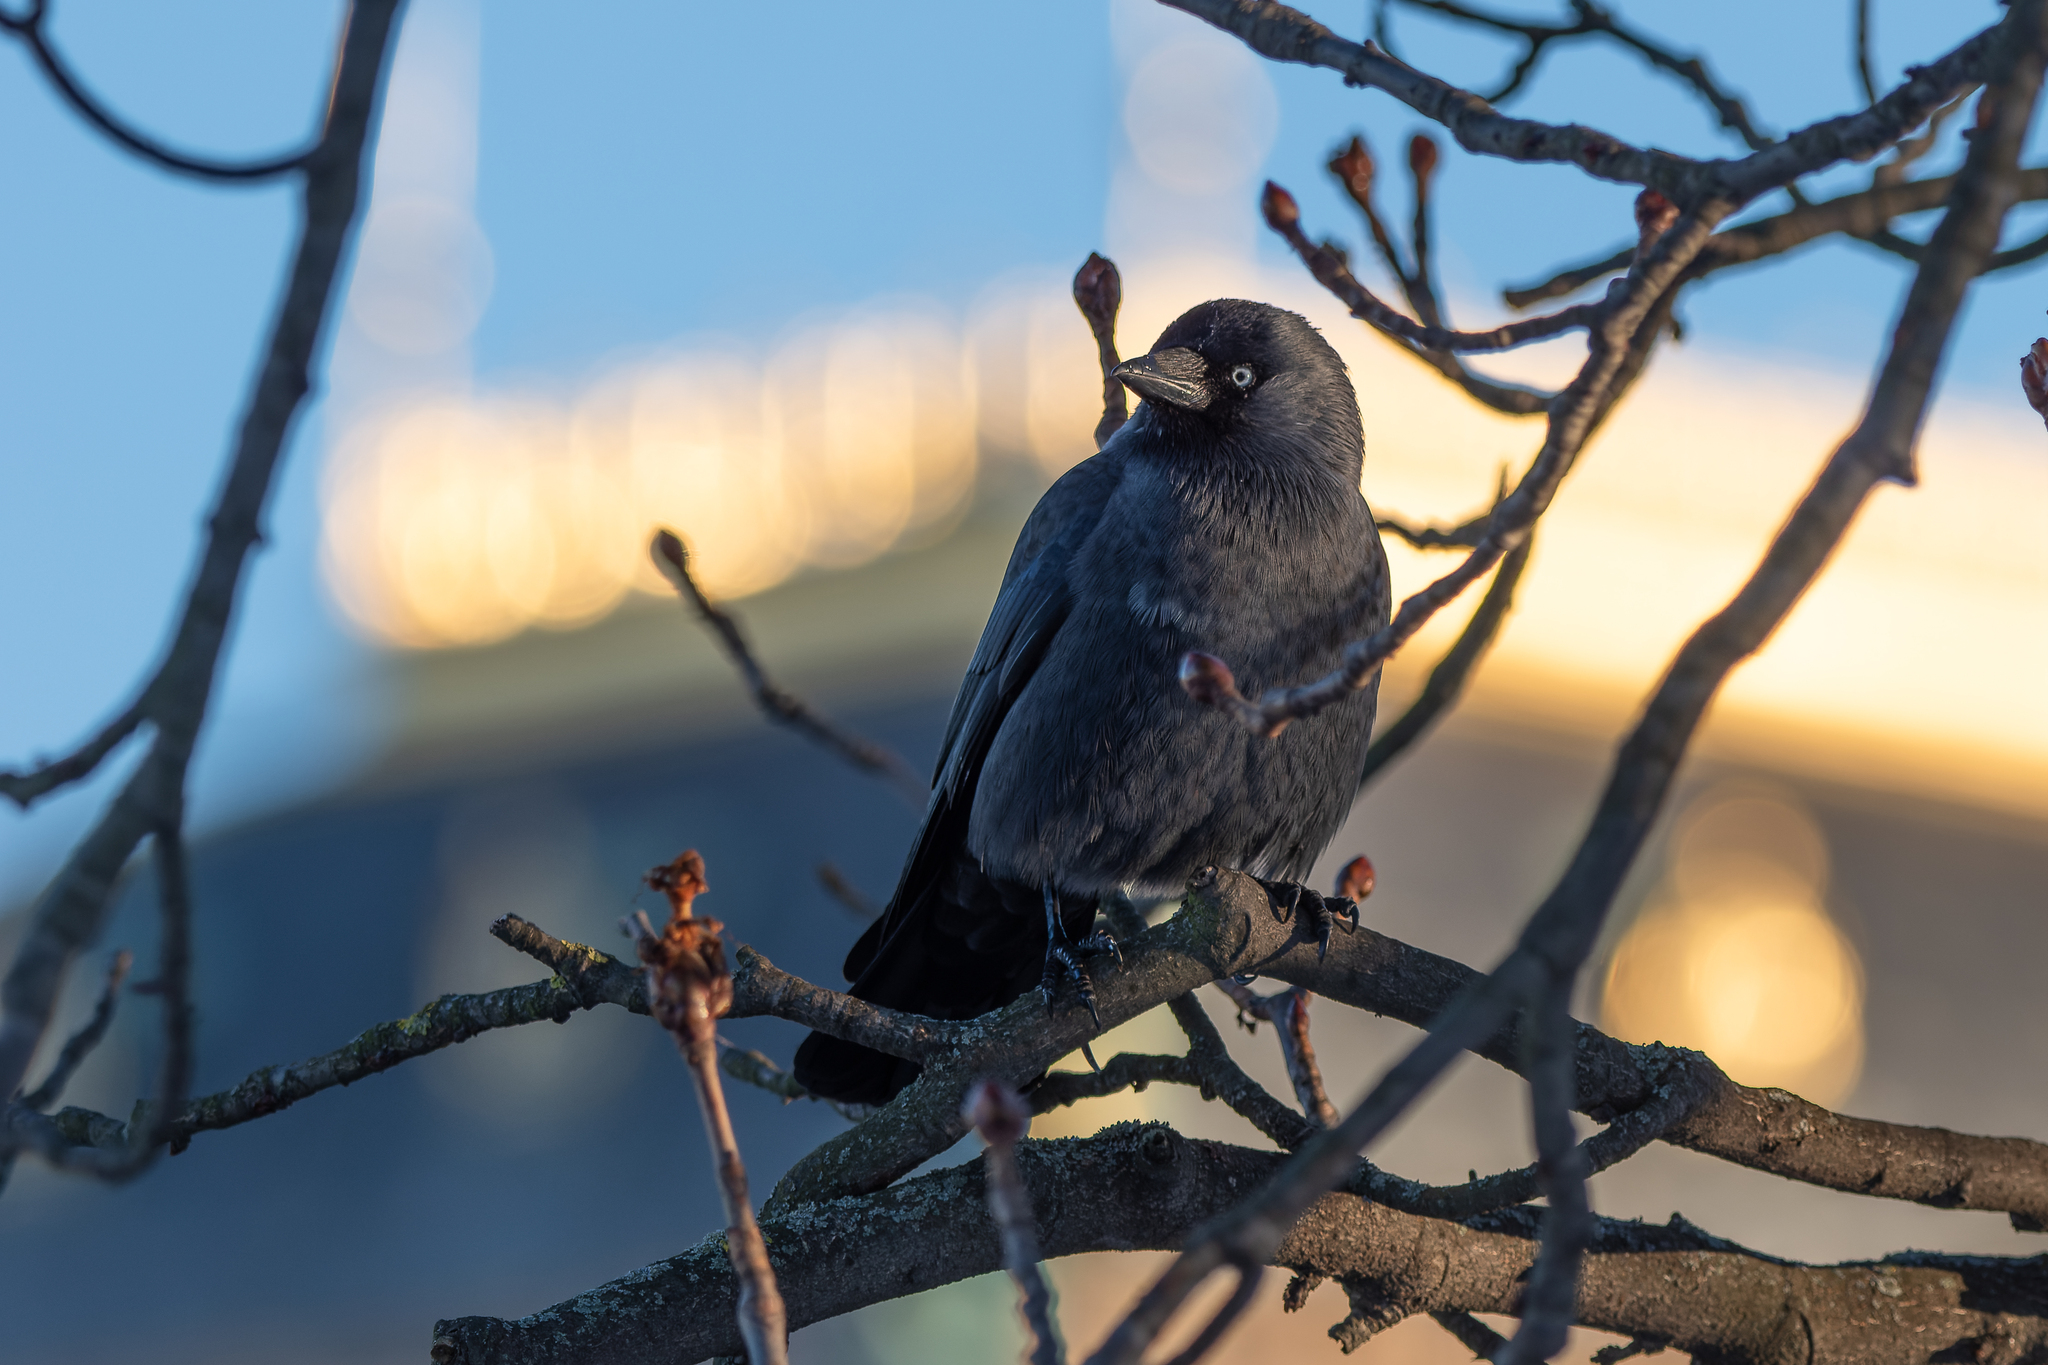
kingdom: Animalia
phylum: Chordata
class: Aves
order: Passeriformes
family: Corvidae
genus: Coloeus
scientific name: Coloeus monedula
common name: Western jackdaw
